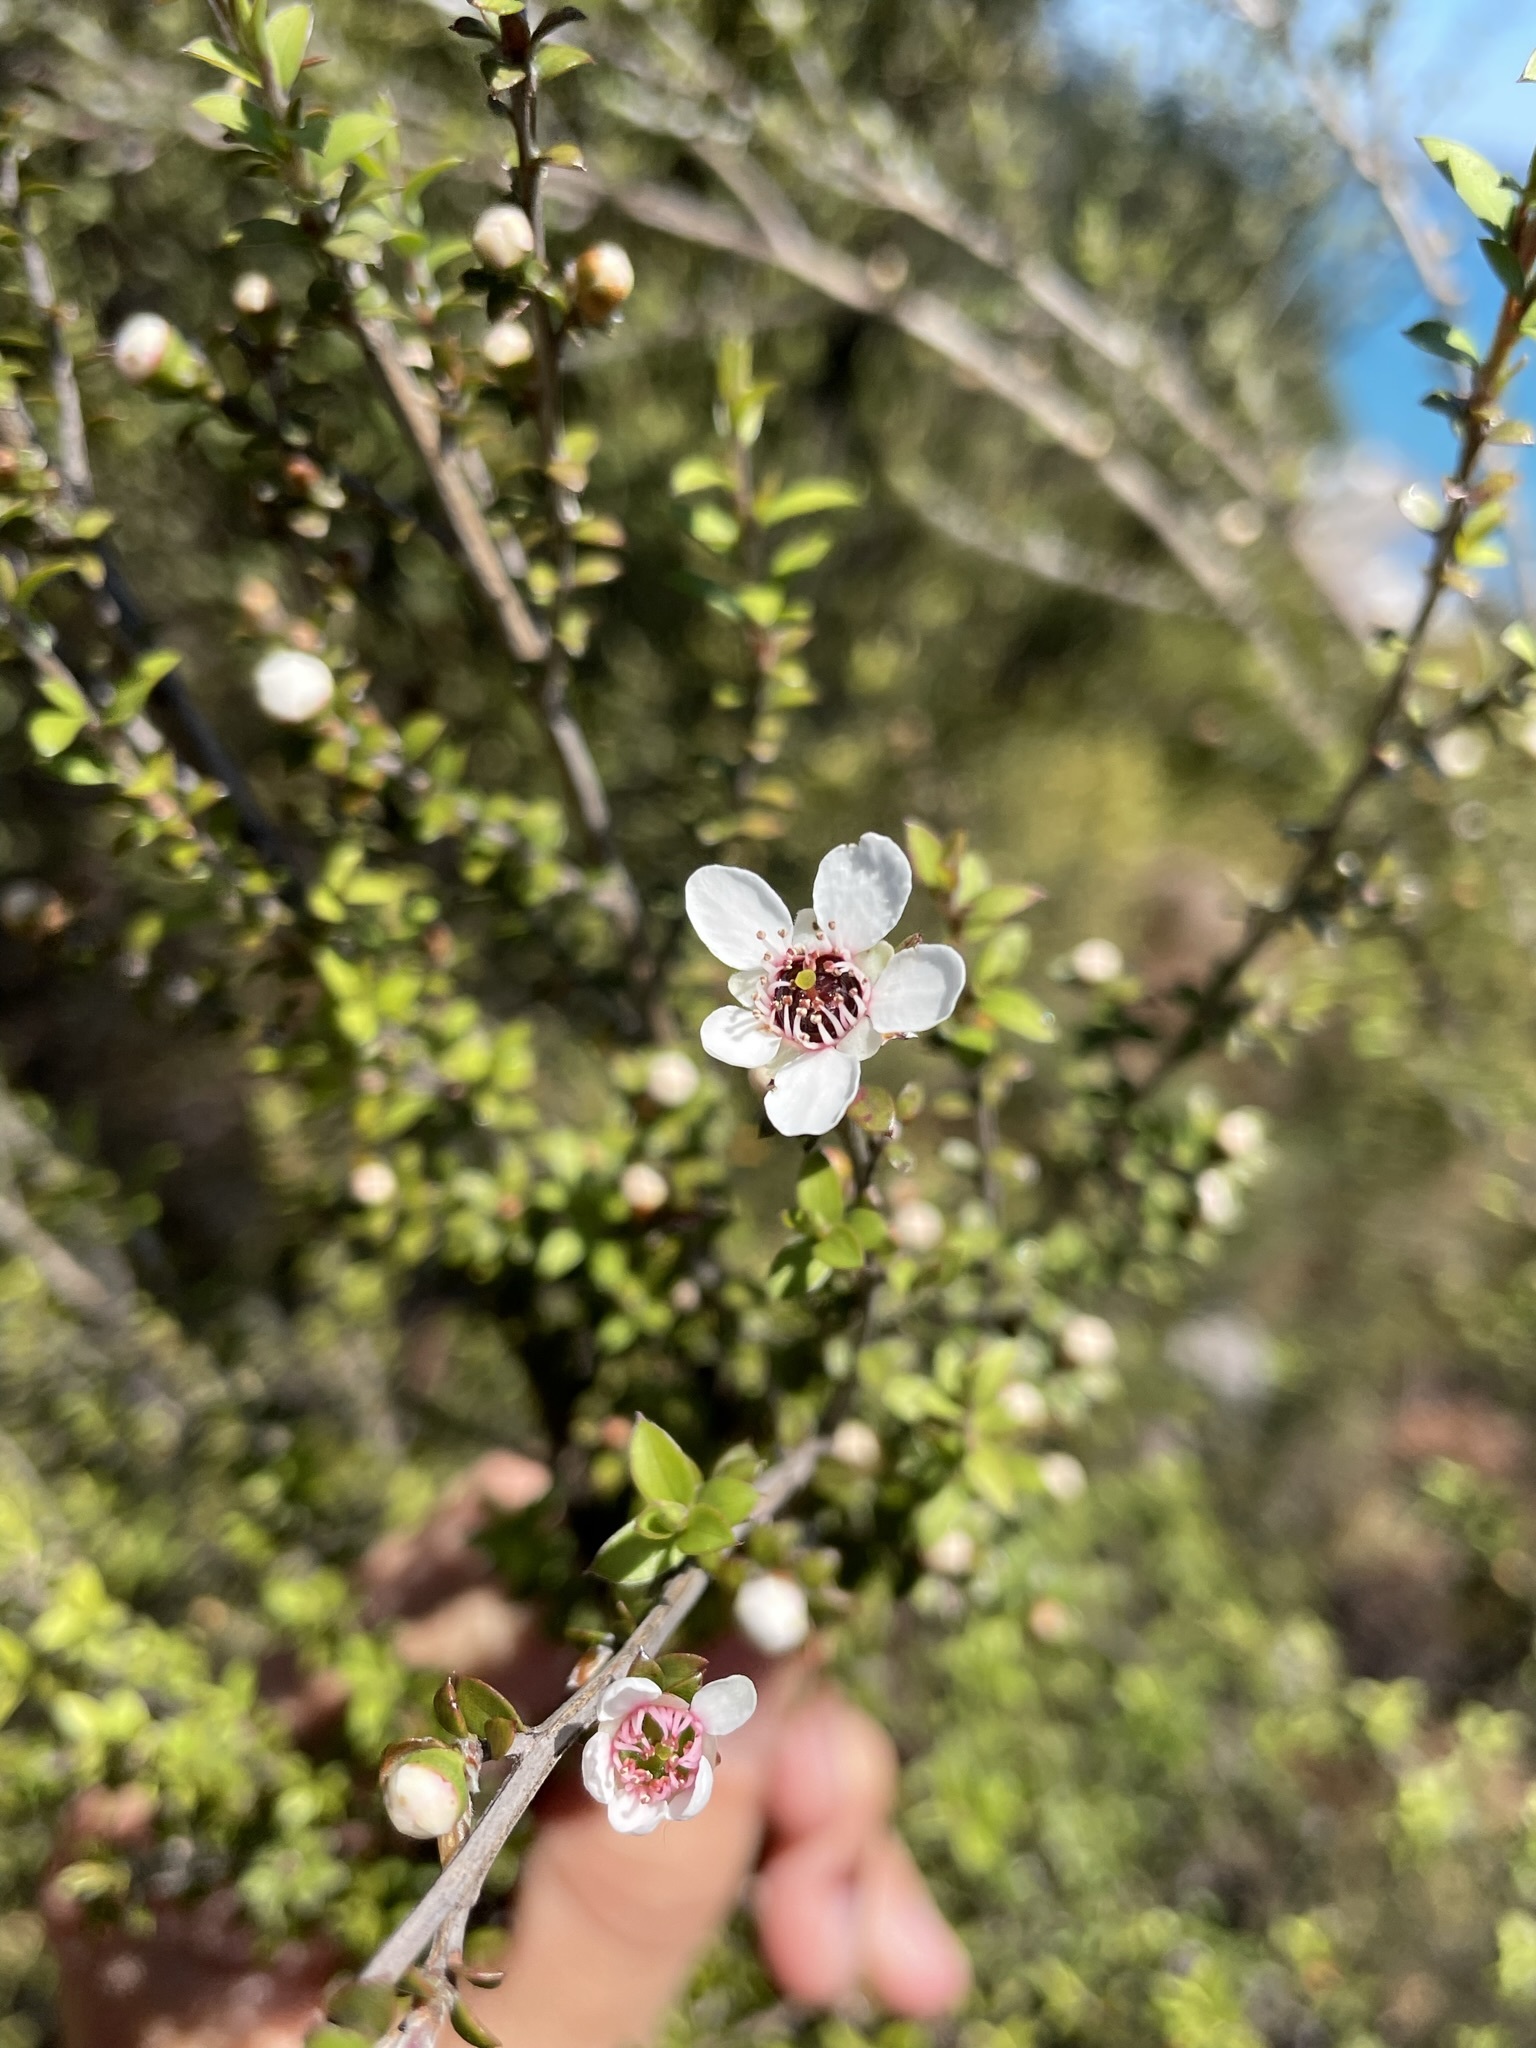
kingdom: Plantae
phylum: Tracheophyta
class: Magnoliopsida
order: Myrtales
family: Myrtaceae
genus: Leptospermum
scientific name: Leptospermum scoparium
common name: Broom tea-tree
